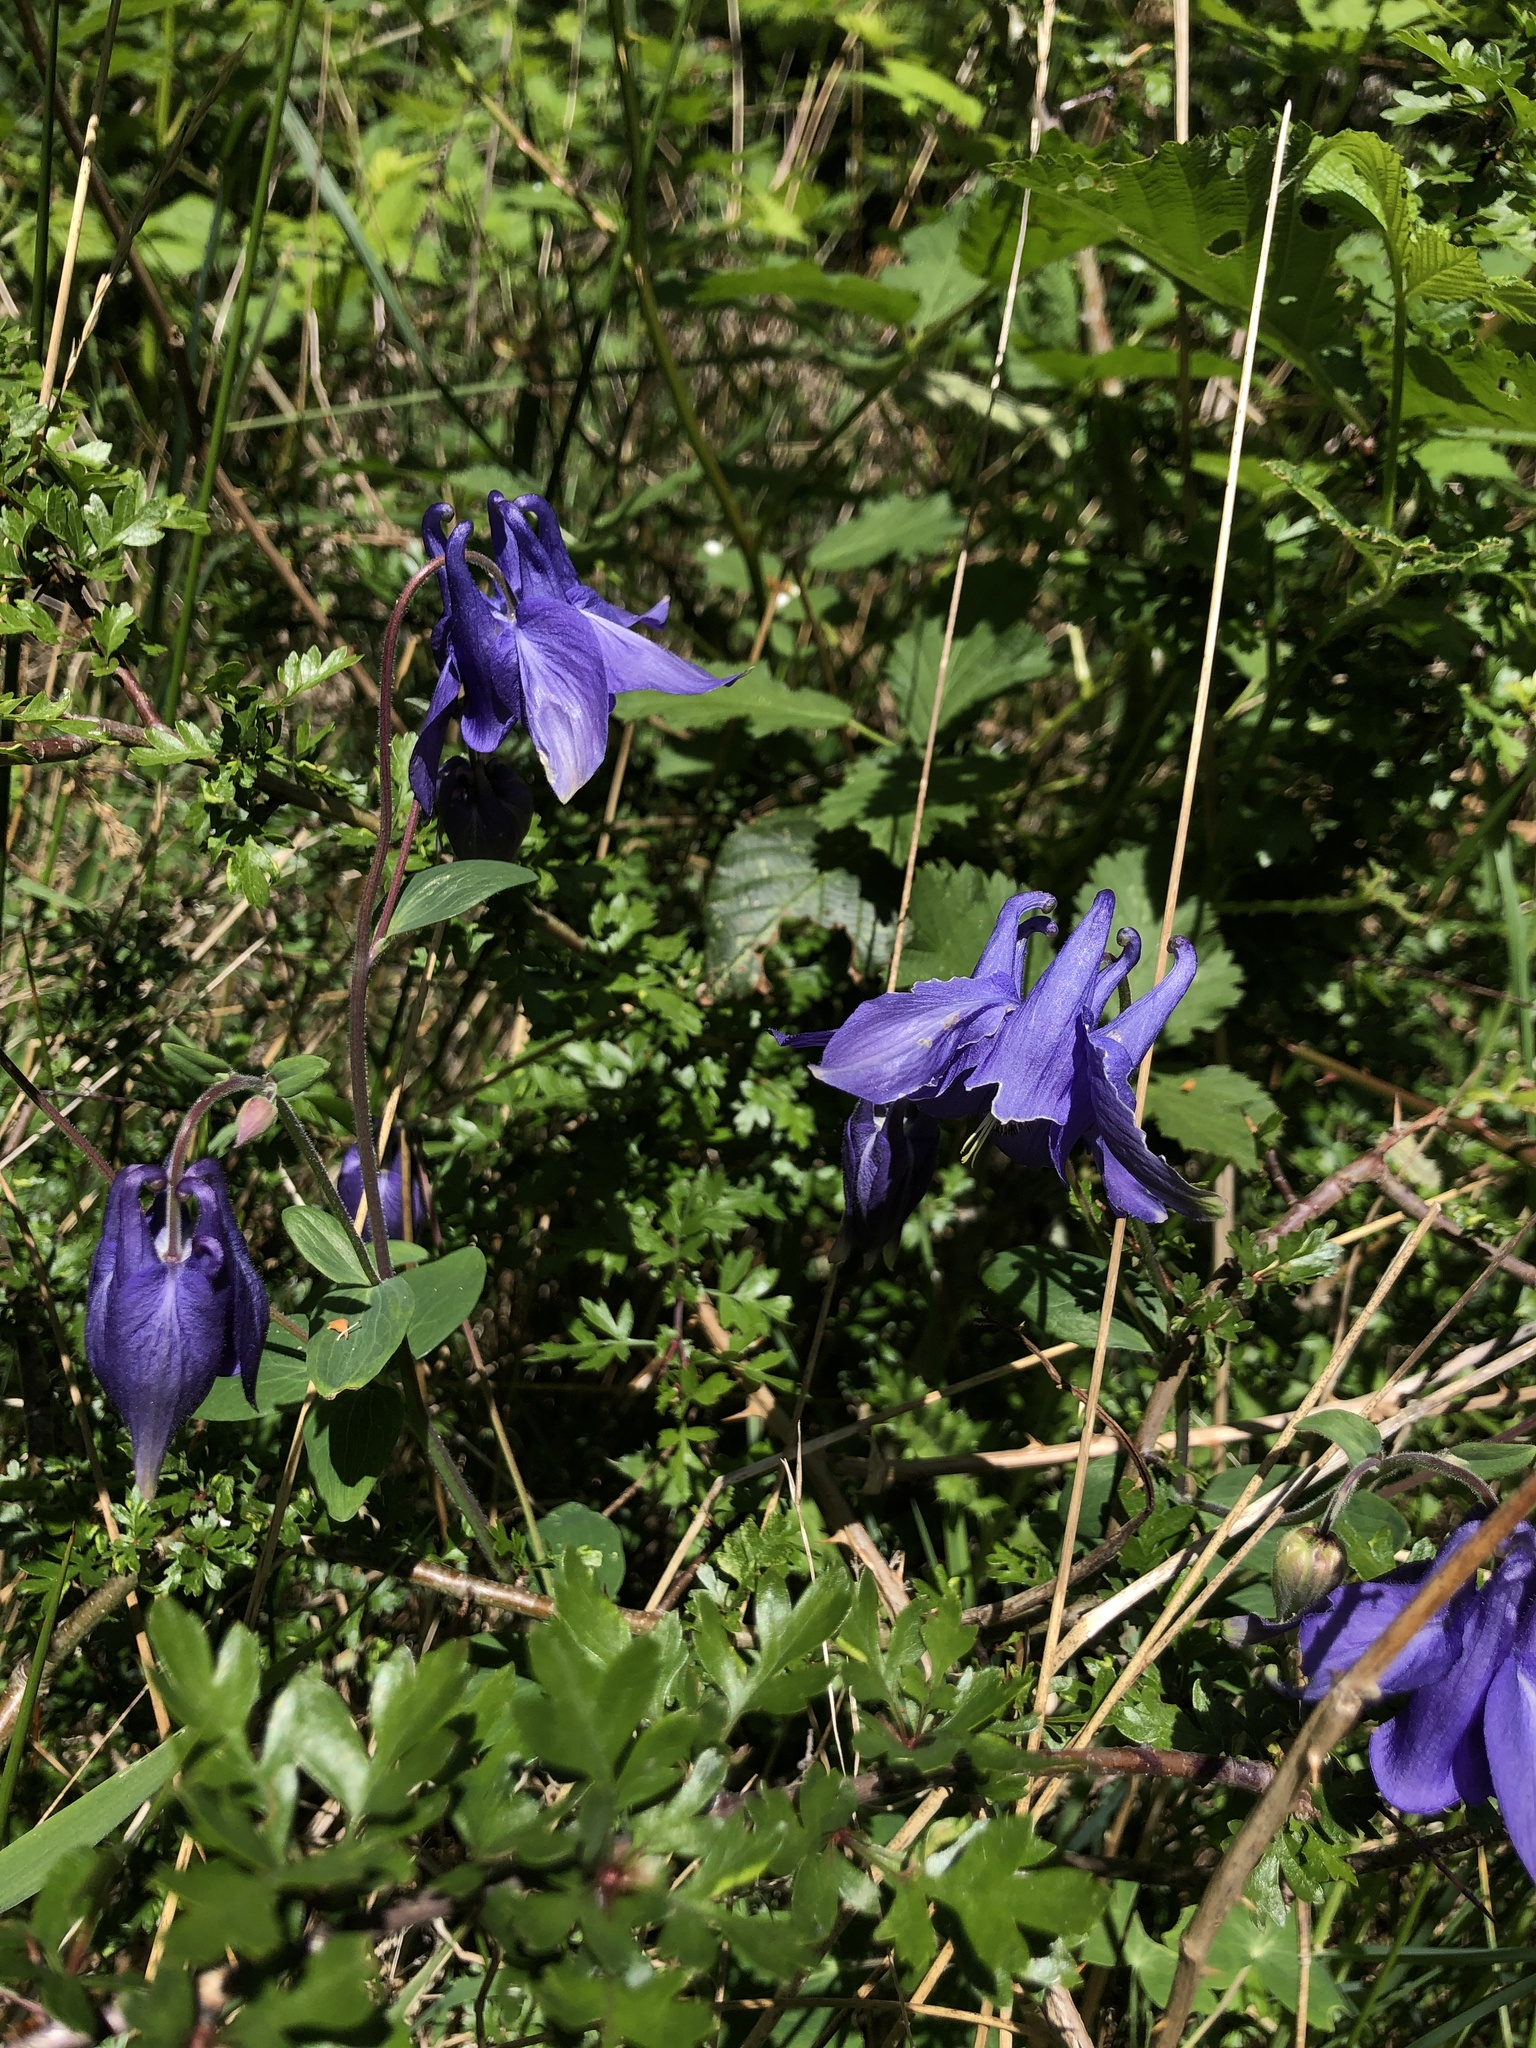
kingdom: Plantae
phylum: Tracheophyta
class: Magnoliopsida
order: Ranunculales
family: Ranunculaceae
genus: Aquilegia
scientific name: Aquilegia vulgaris
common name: Columbine
